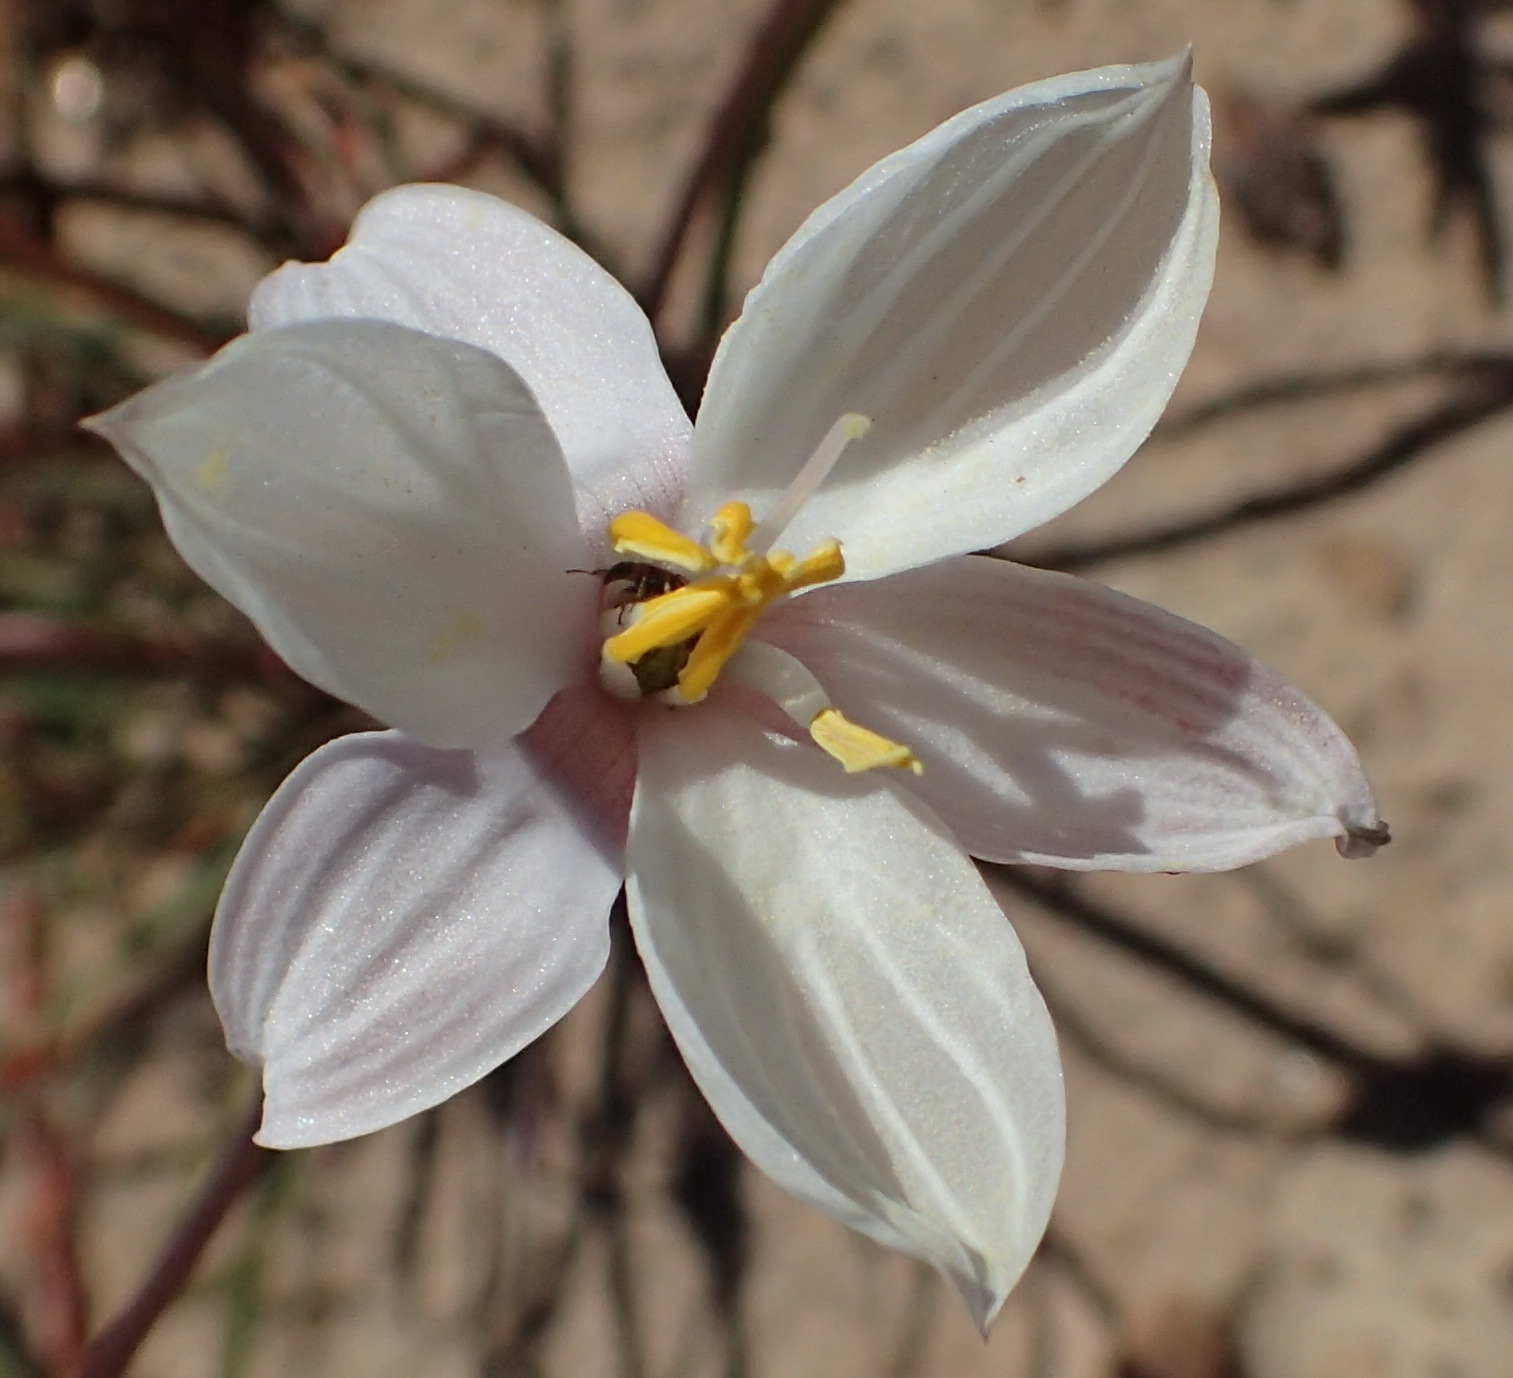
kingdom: Plantae
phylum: Tracheophyta
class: Liliopsida
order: Asparagales
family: Tecophilaeaceae
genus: Cyanella
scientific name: Cyanella alba
